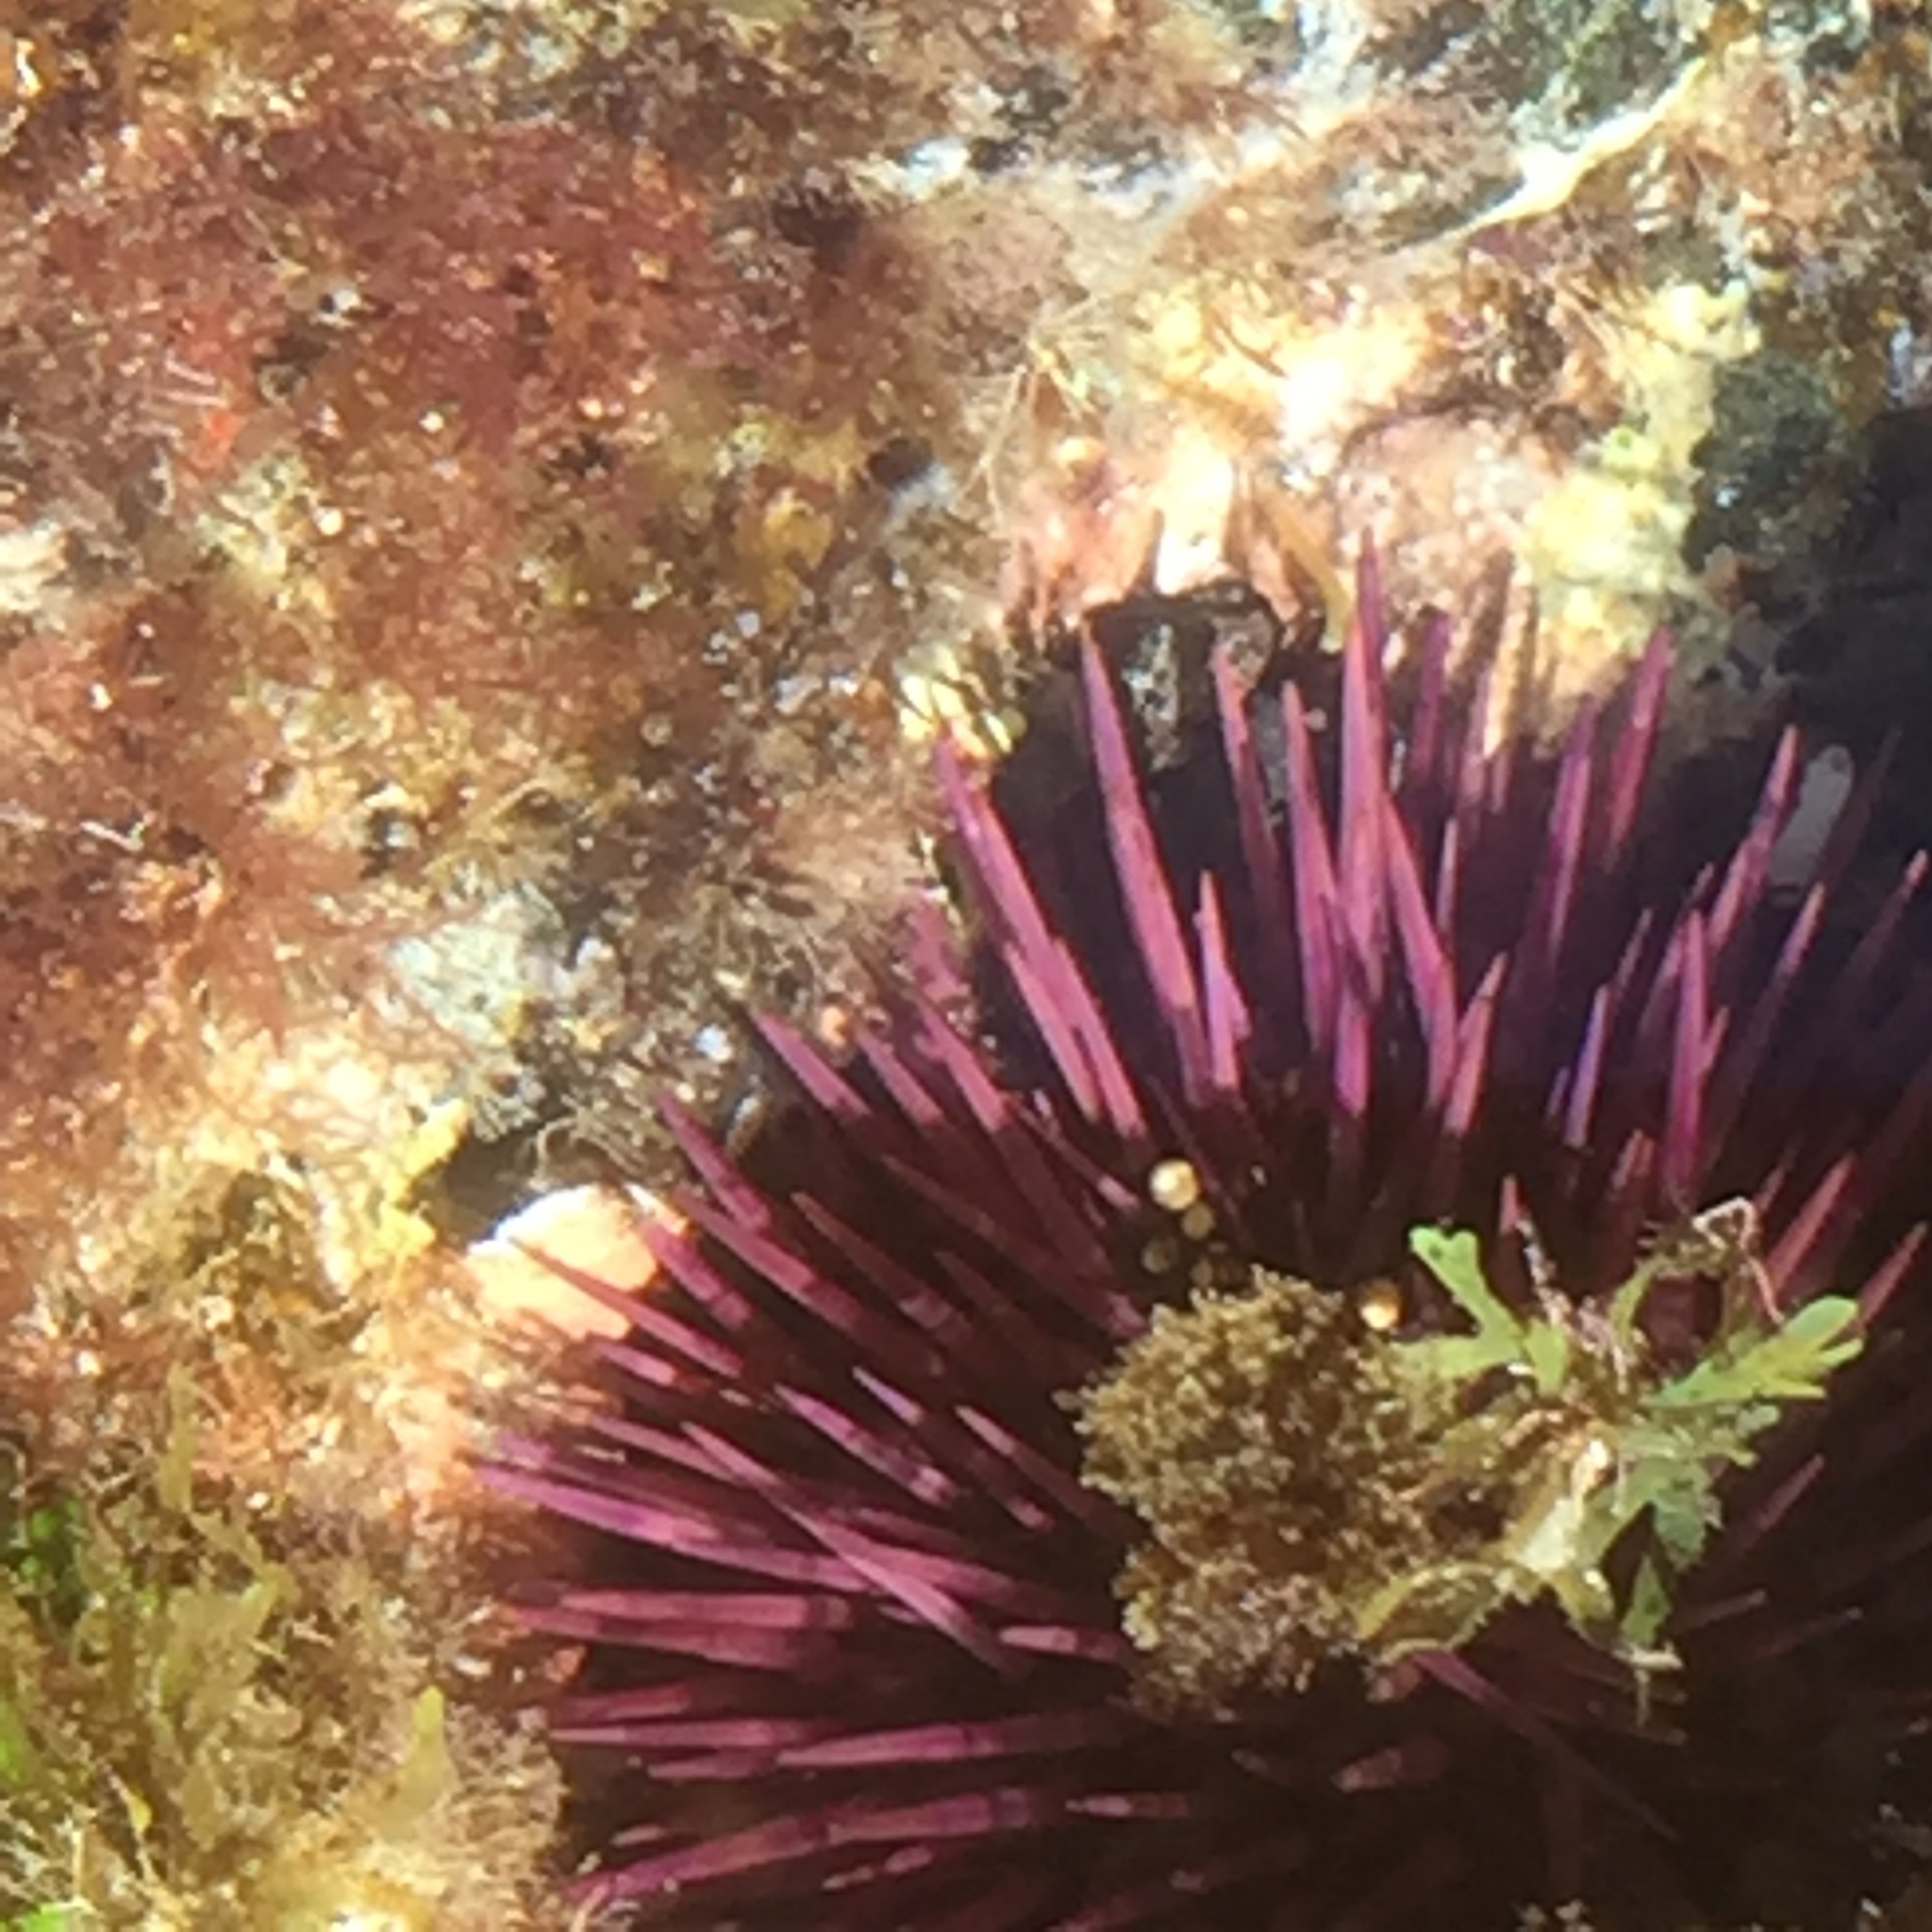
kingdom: Animalia
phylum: Echinodermata
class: Echinoidea
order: Camarodonta
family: Parechinidae
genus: Paracentrotus
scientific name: Paracentrotus lividus
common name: Purple sea urchin
